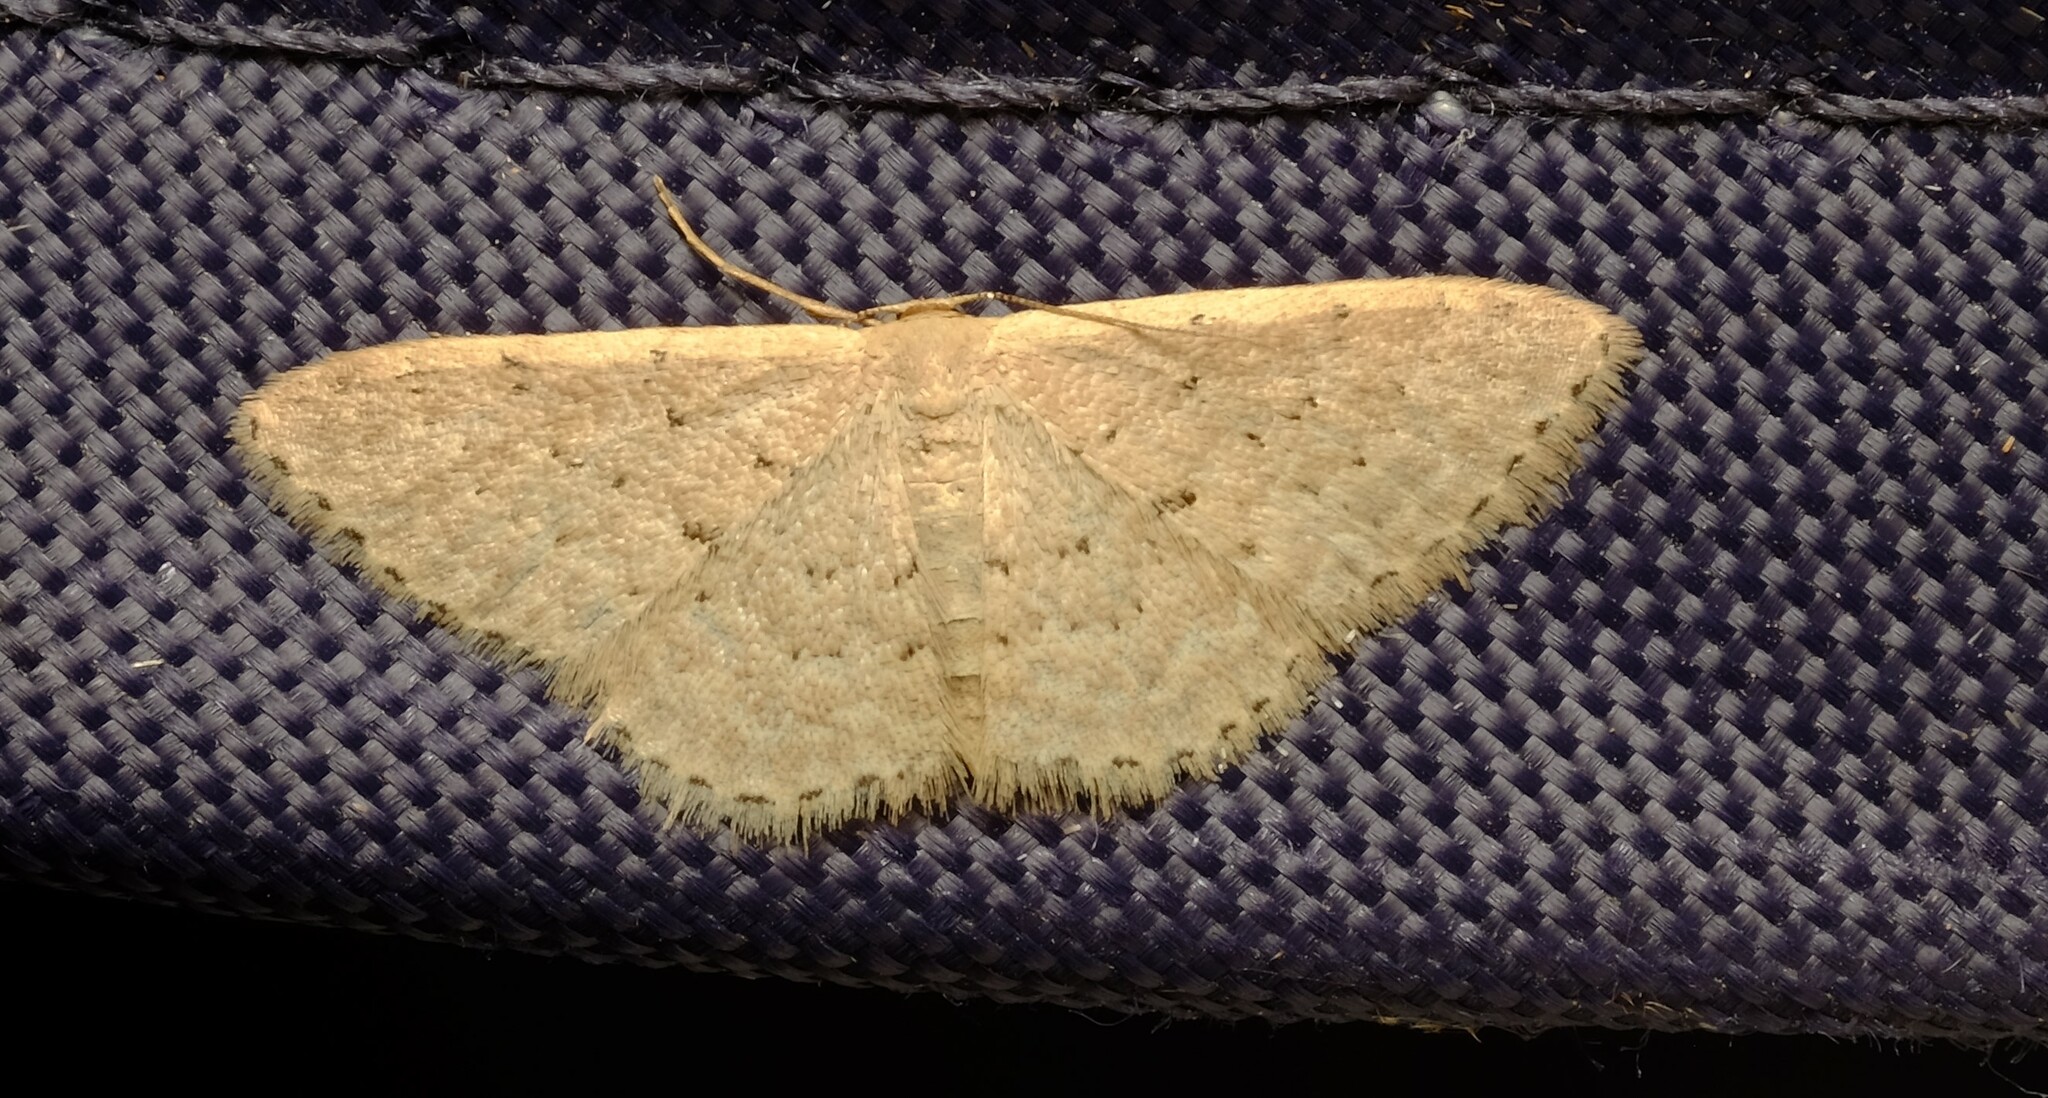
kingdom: Animalia
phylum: Arthropoda
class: Insecta
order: Lepidoptera
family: Geometridae
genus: Idaea
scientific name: Idaea philocosma
